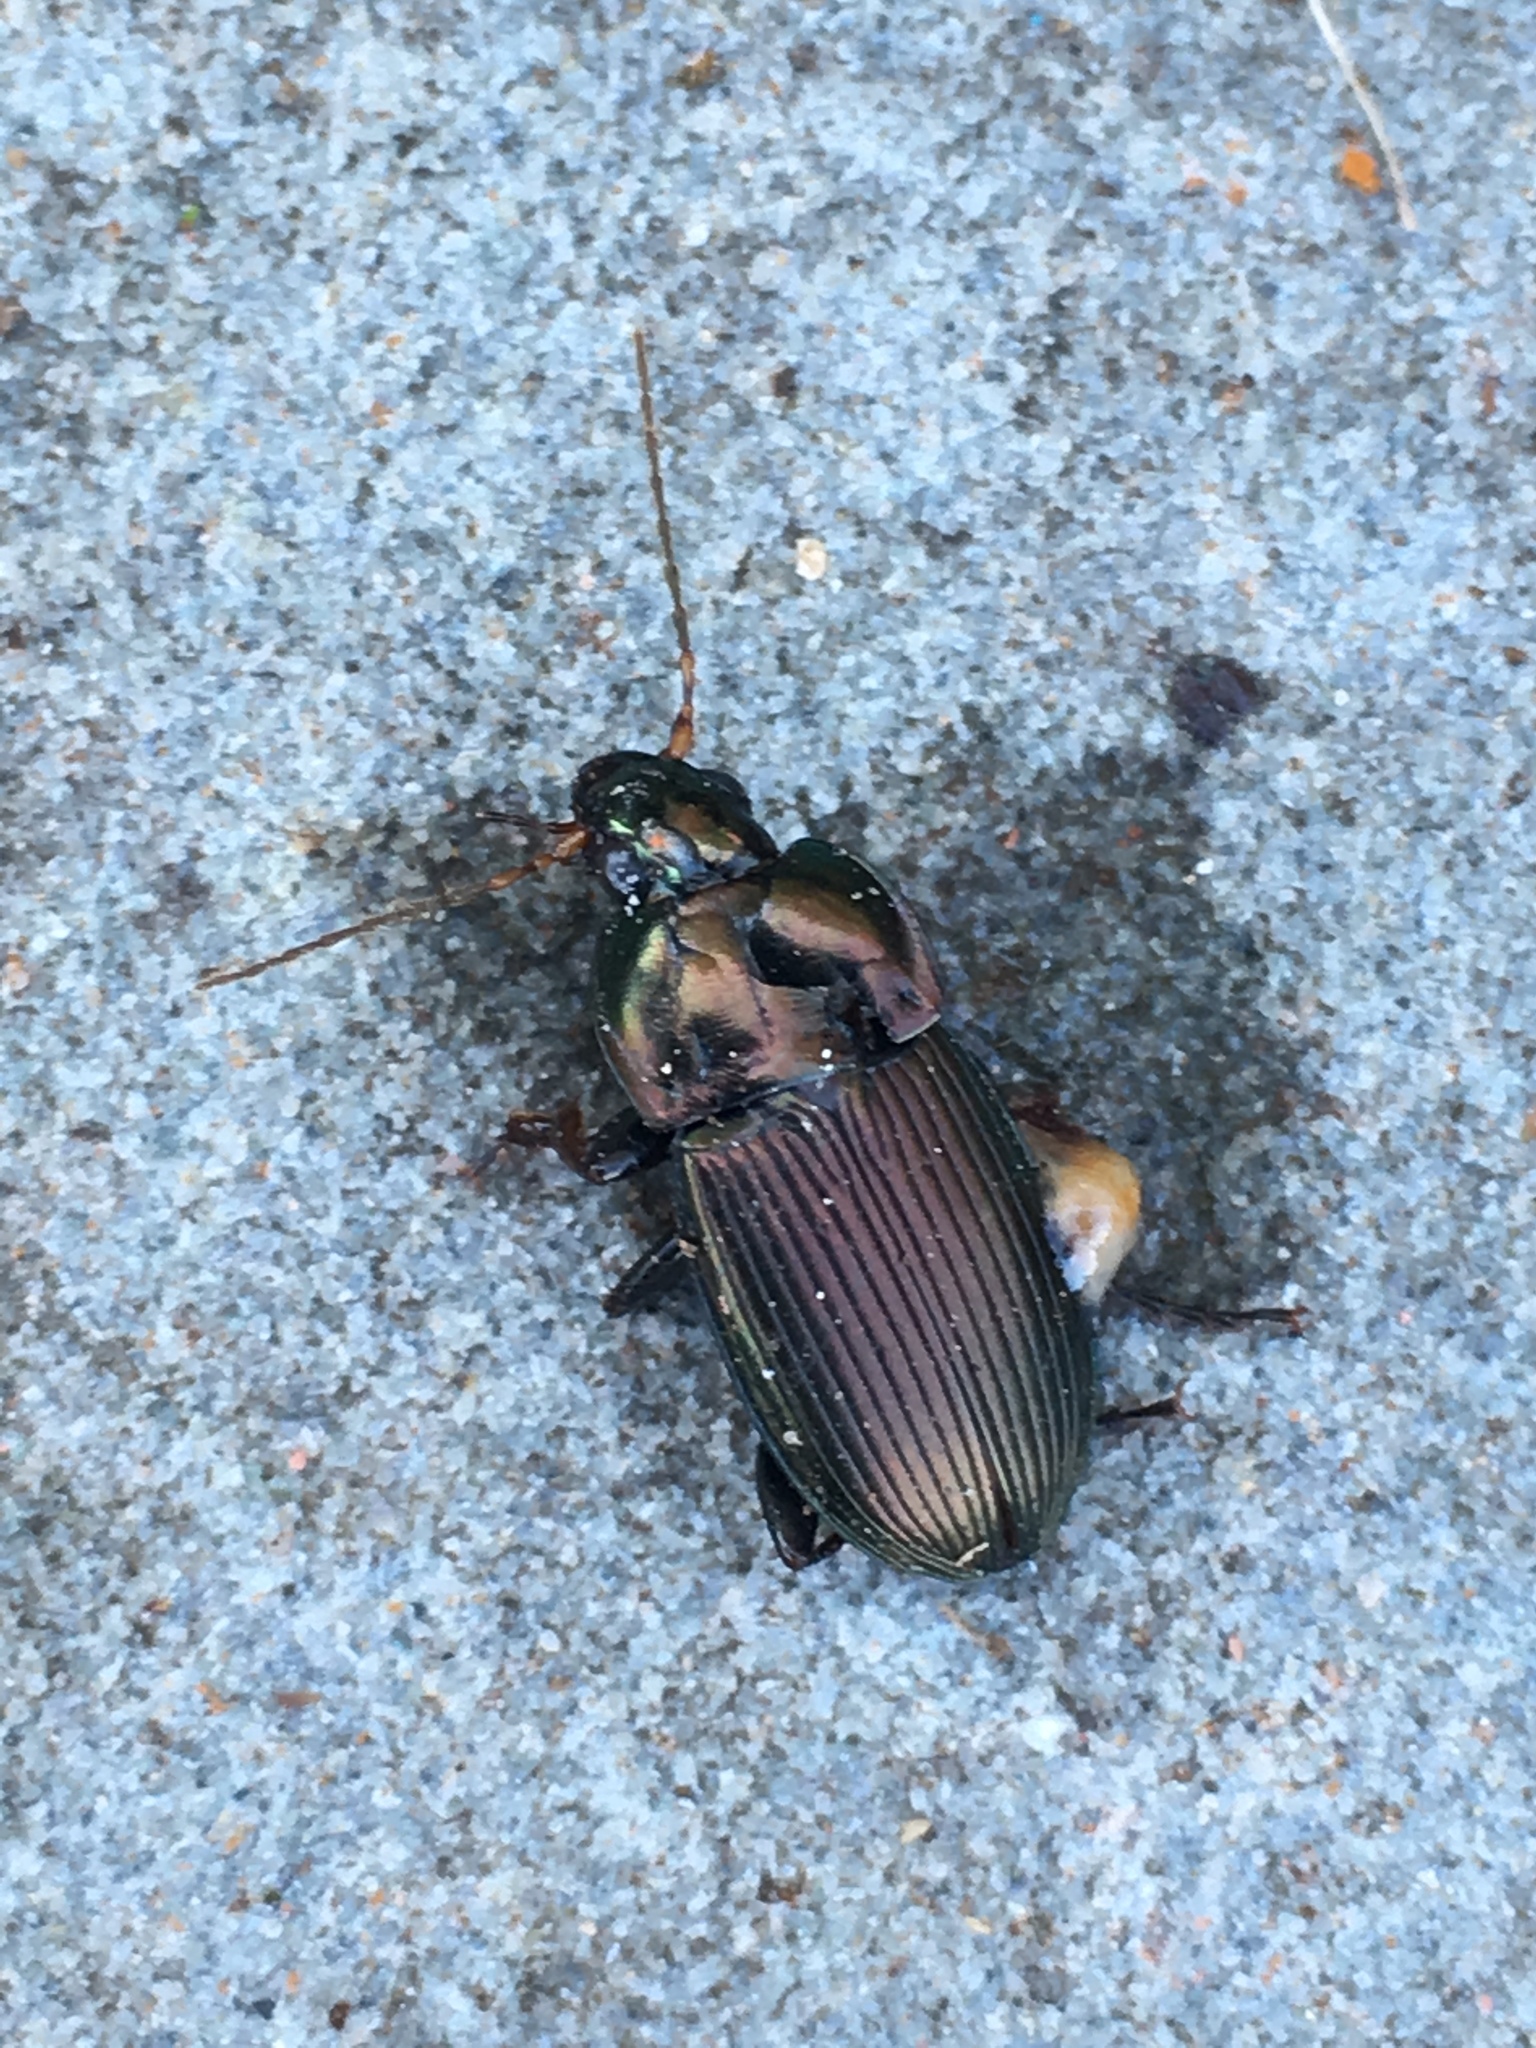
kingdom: Animalia
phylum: Arthropoda
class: Insecta
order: Coleoptera
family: Carabidae
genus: Poecilus
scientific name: Poecilus lucublandus
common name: Woodland ground beetle
